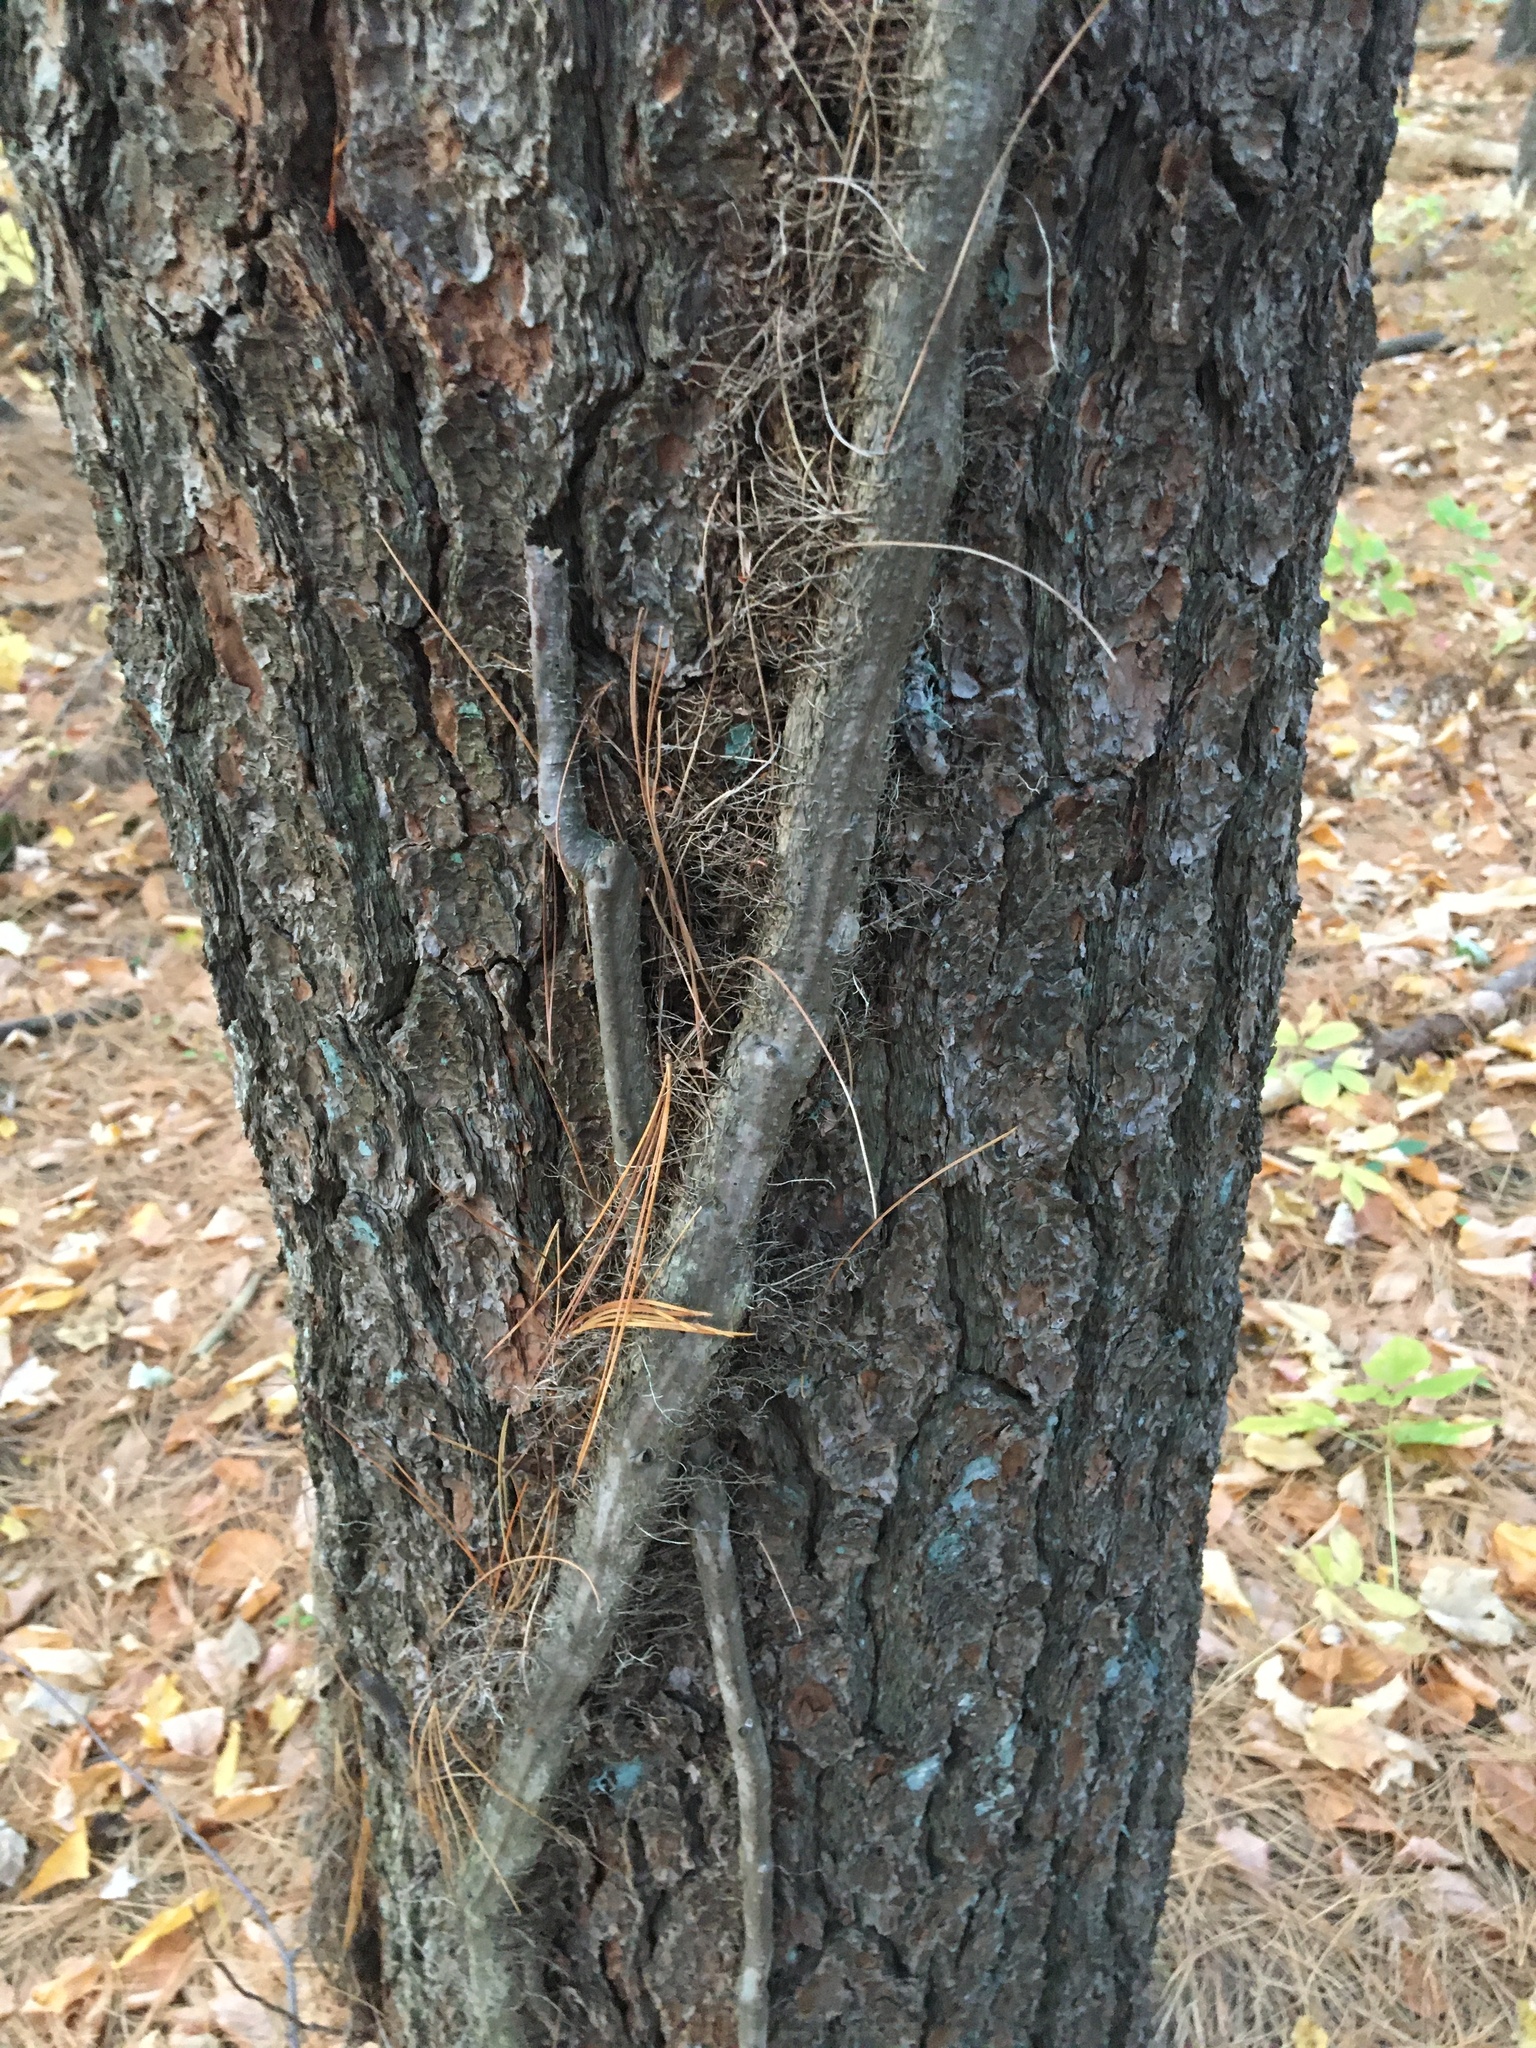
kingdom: Plantae
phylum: Tracheophyta
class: Magnoliopsida
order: Sapindales
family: Anacardiaceae
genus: Toxicodendron
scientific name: Toxicodendron radicans
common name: Poison ivy
